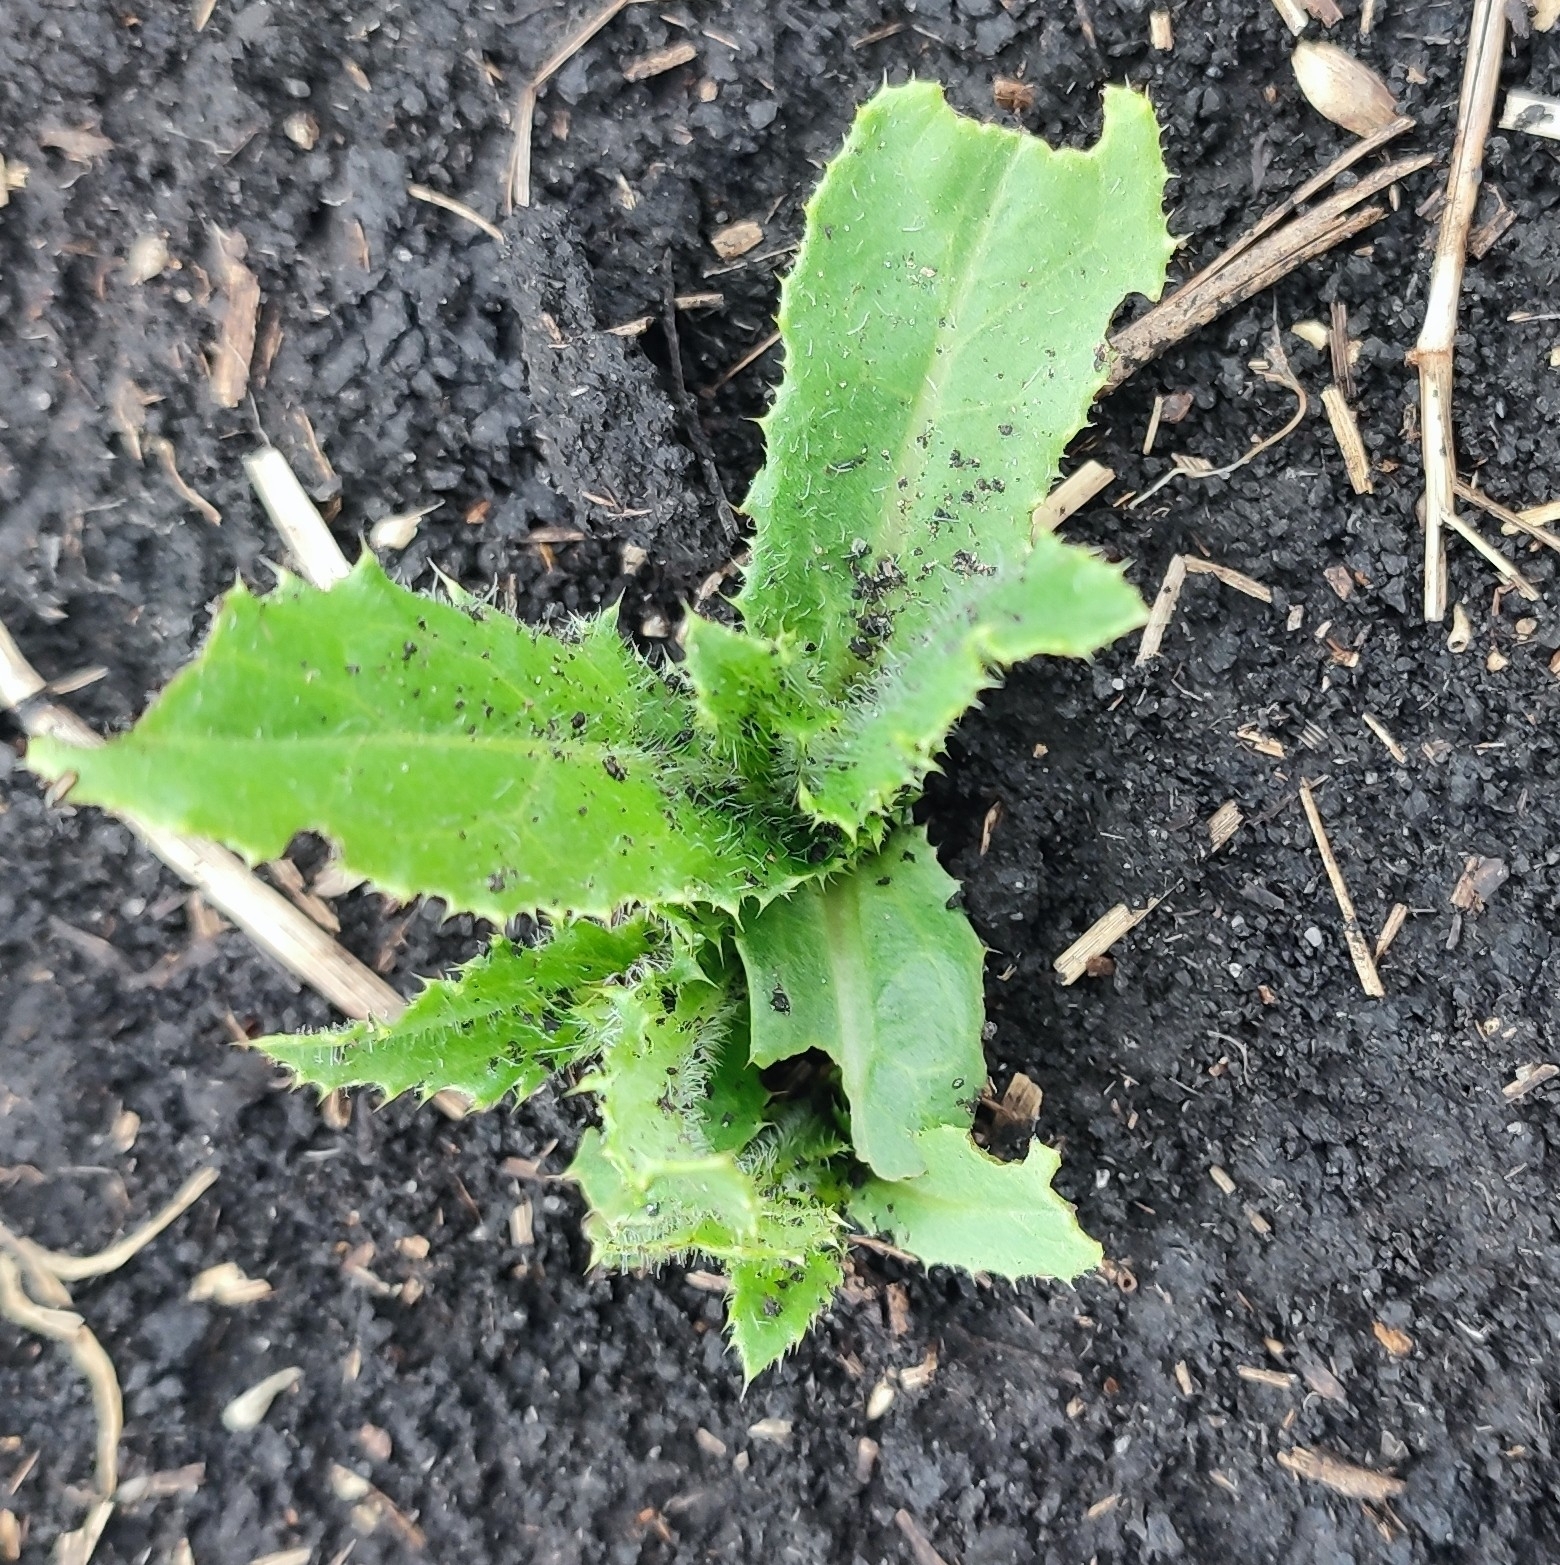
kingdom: Plantae
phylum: Tracheophyta
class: Magnoliopsida
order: Asterales
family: Asteraceae
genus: Cirsium
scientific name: Cirsium arvense
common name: Creeping thistle
